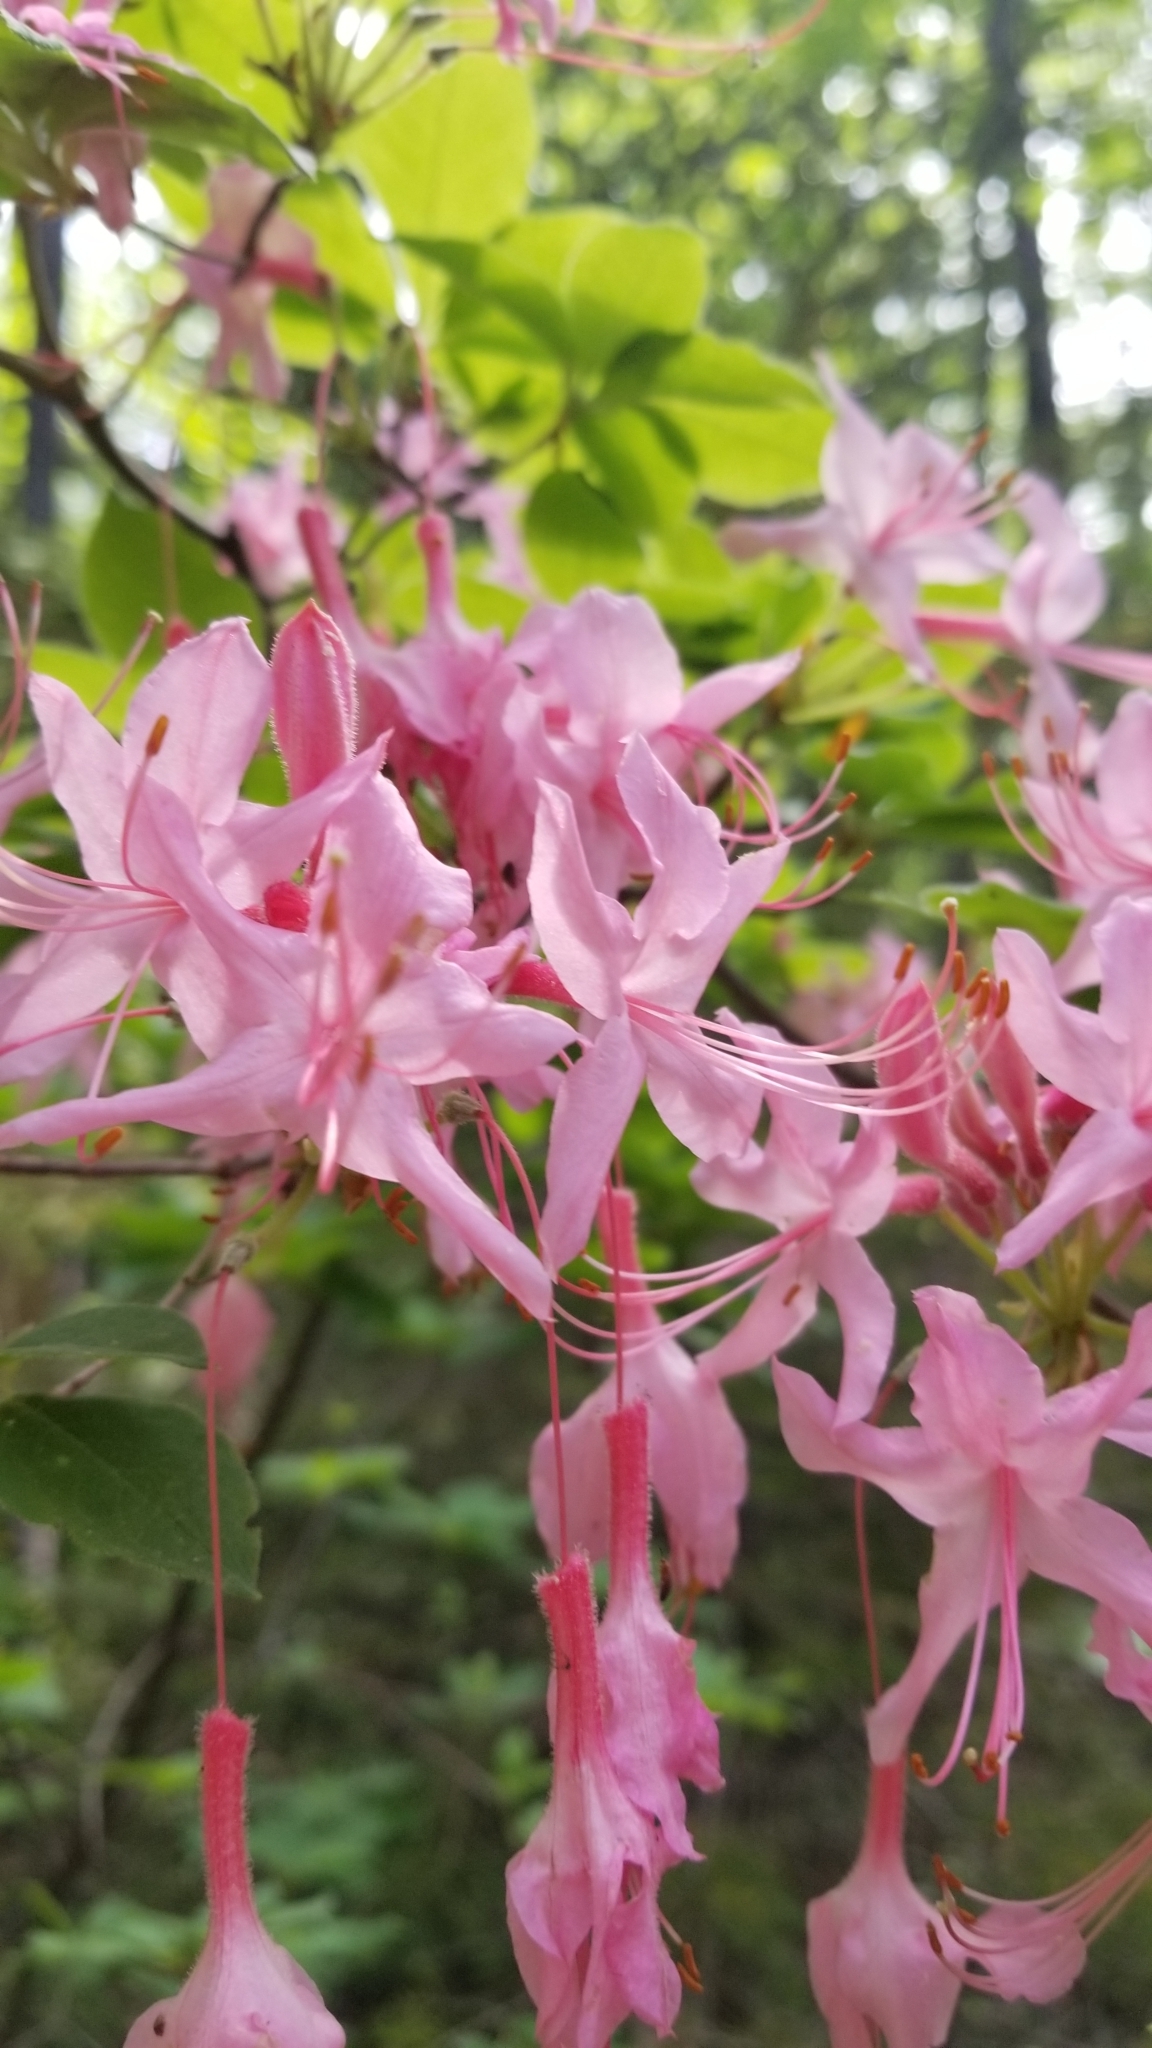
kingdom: Plantae
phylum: Tracheophyta
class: Magnoliopsida
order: Ericales
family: Ericaceae
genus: Rhododendron
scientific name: Rhododendron roseum
